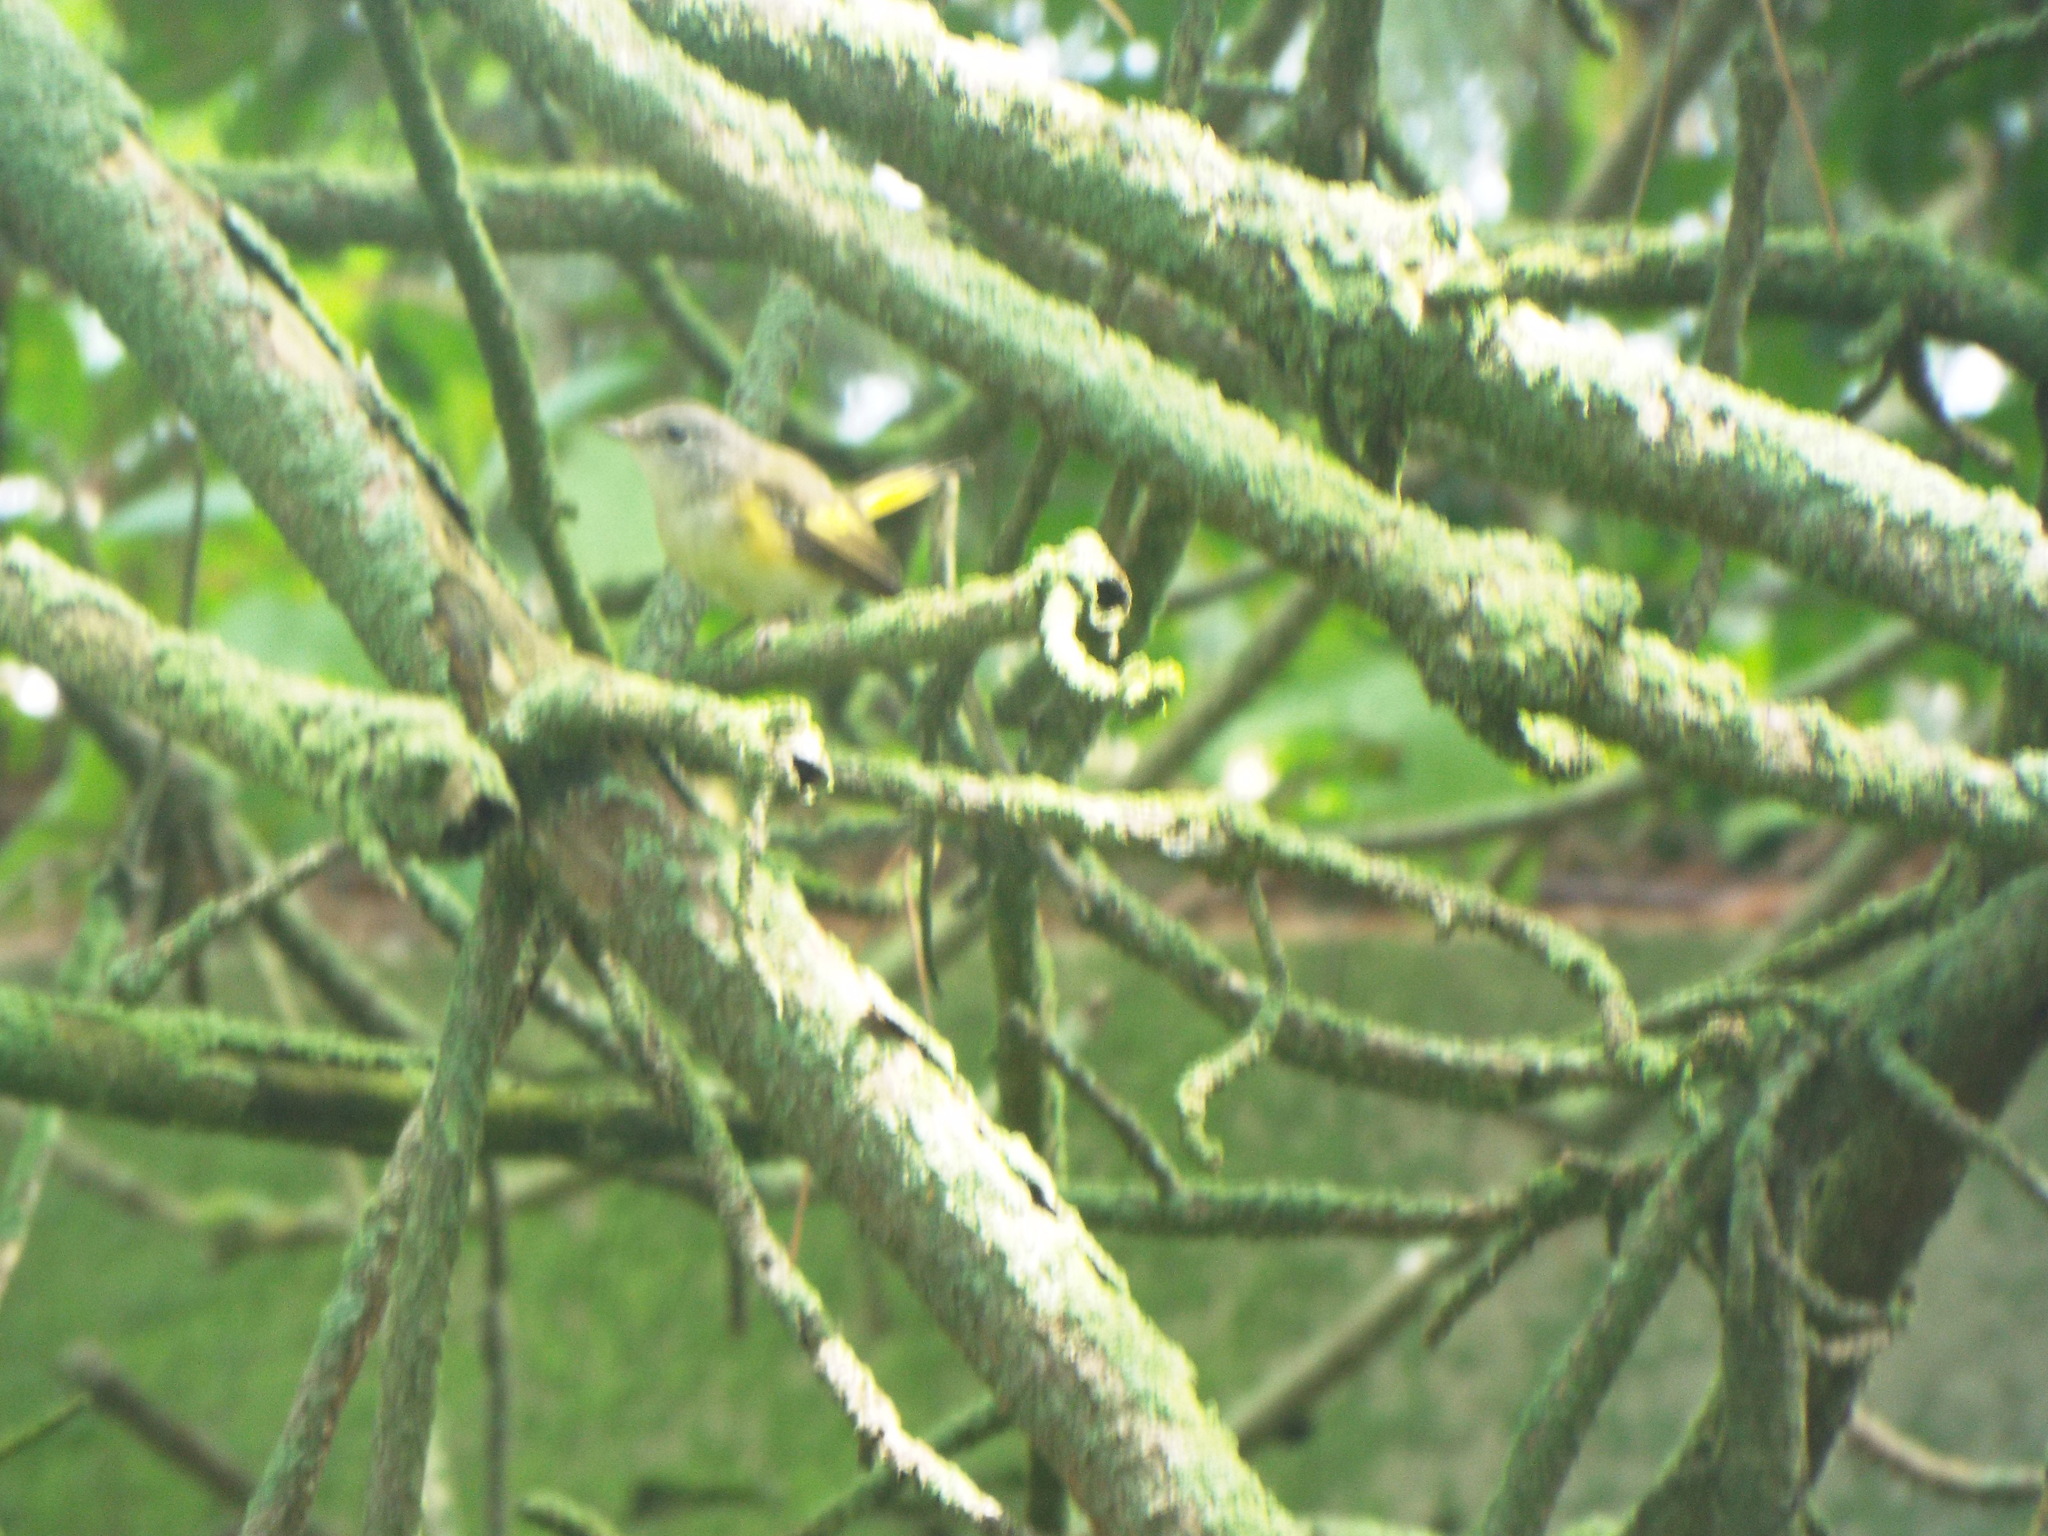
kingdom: Animalia
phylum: Chordata
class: Aves
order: Passeriformes
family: Parulidae
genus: Setophaga
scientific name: Setophaga ruticilla
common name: American redstart
